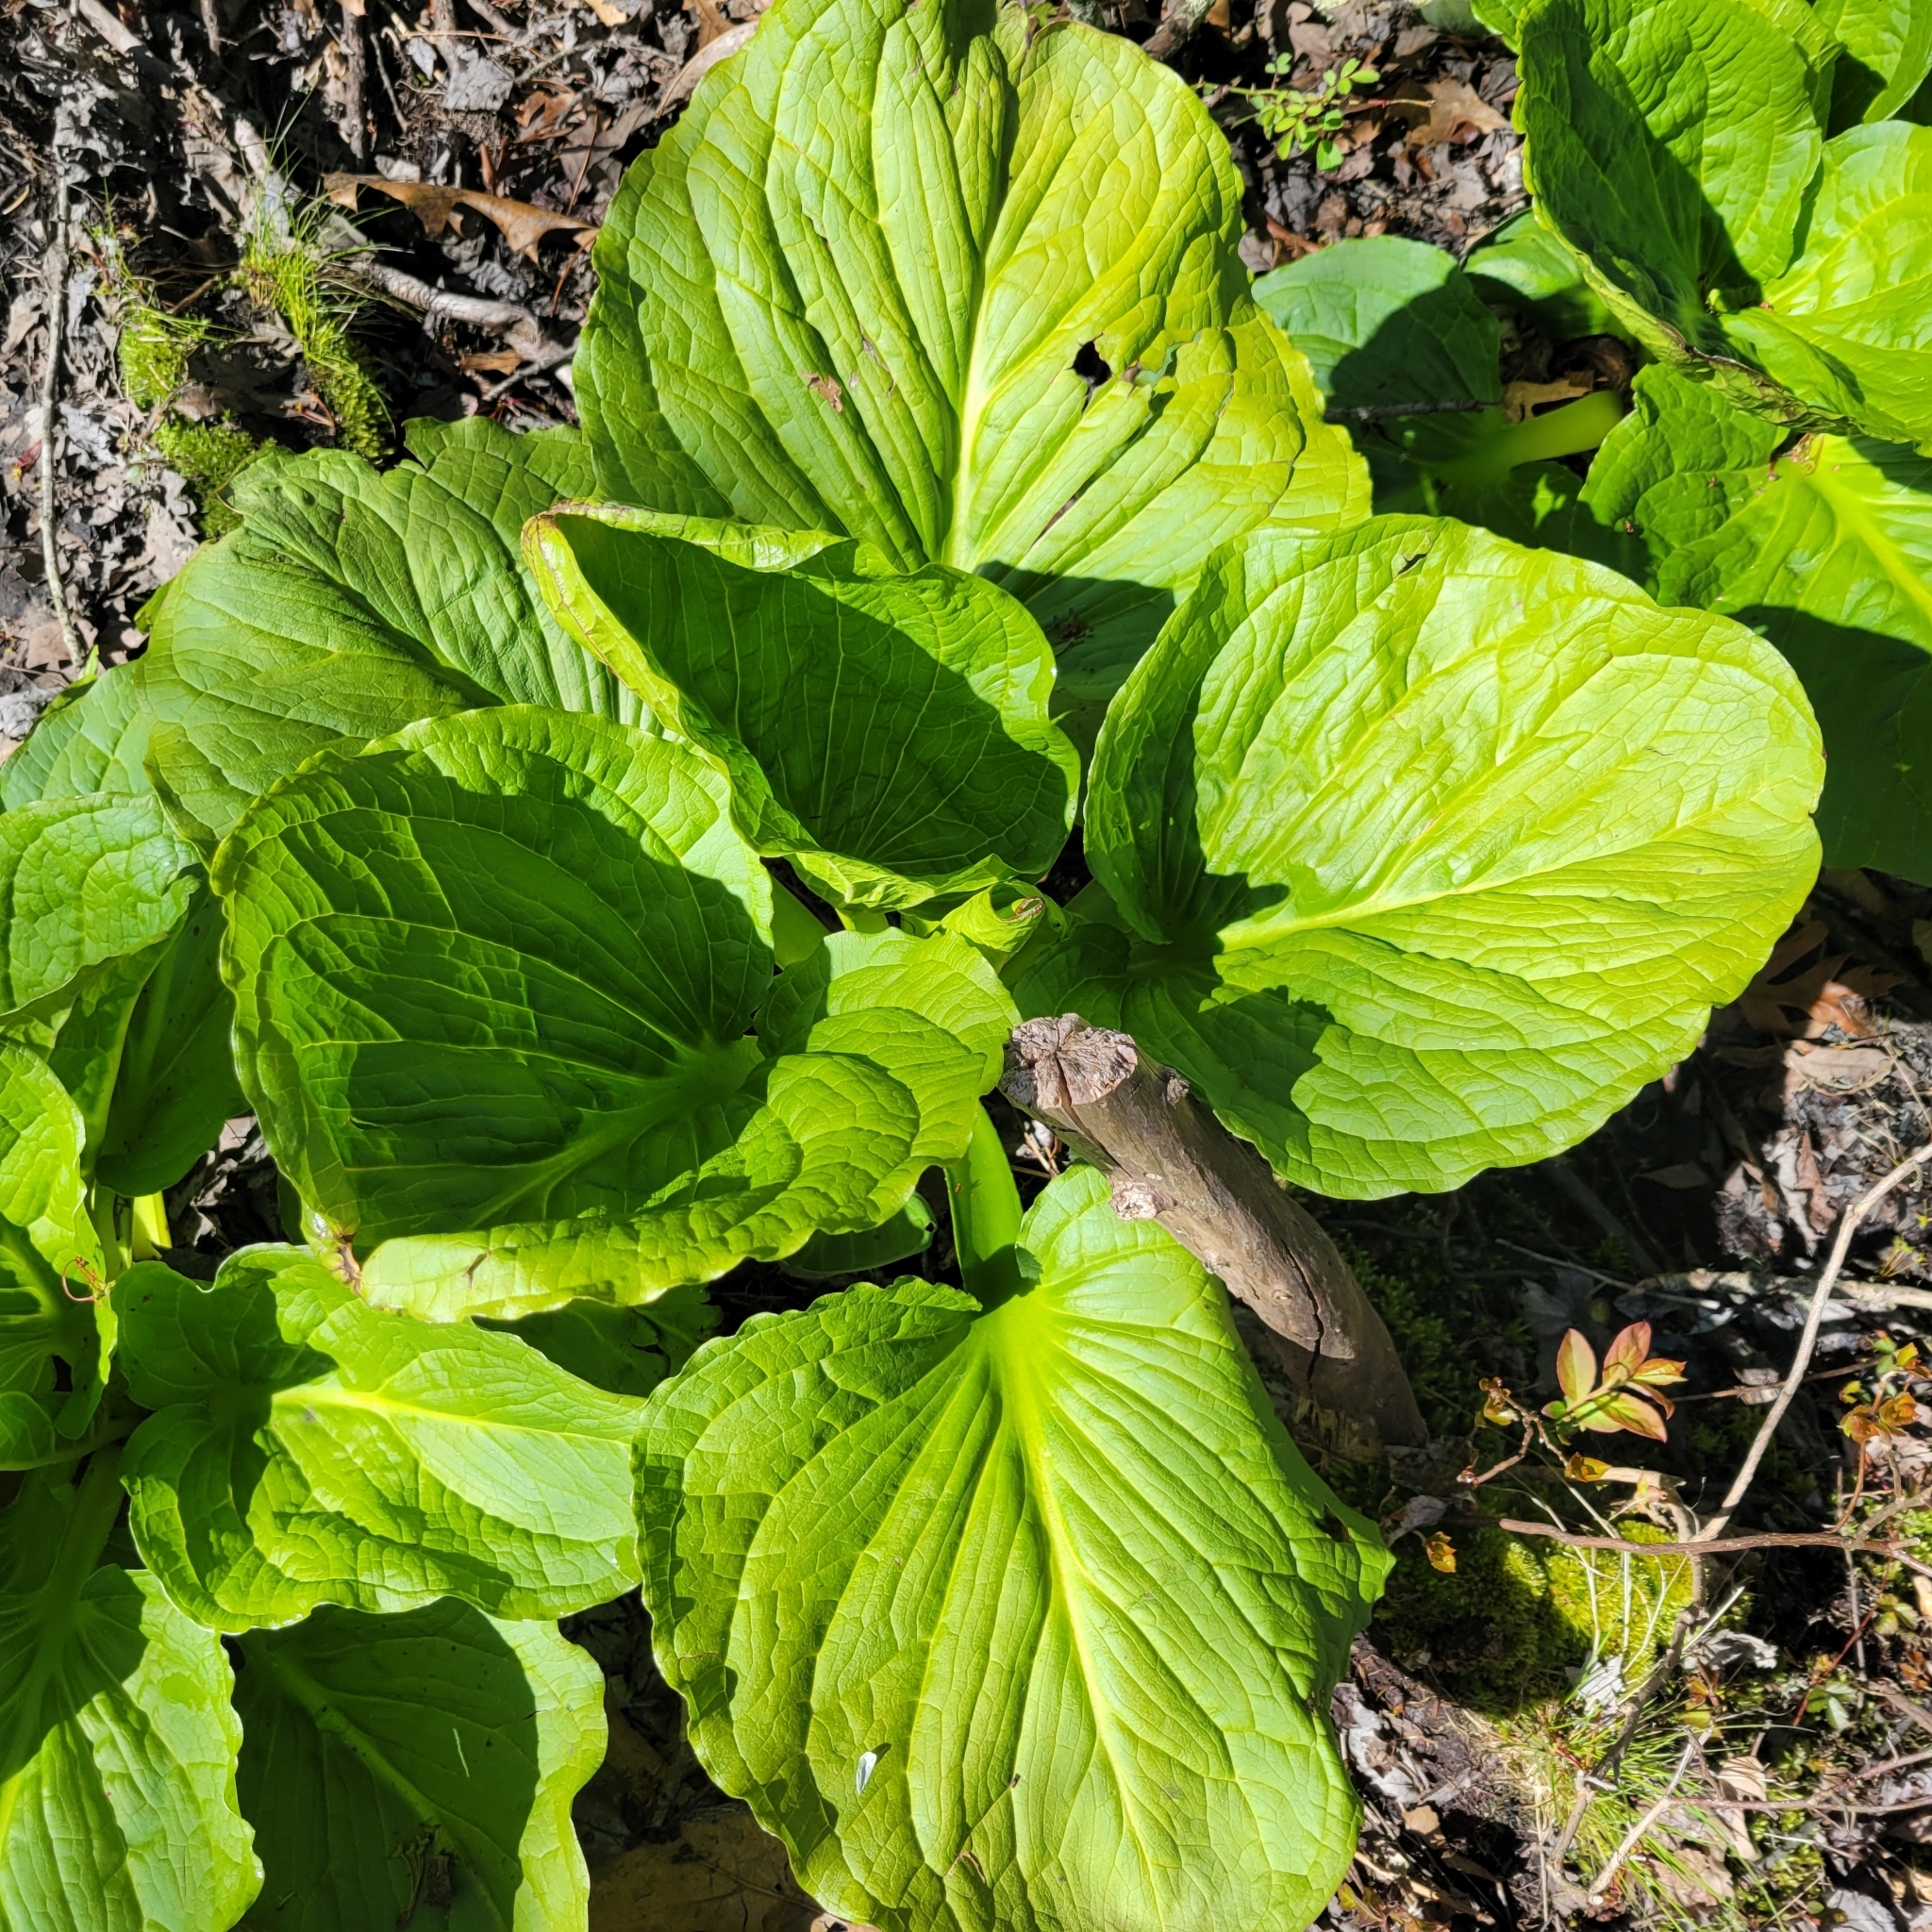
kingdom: Plantae
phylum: Tracheophyta
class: Liliopsida
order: Alismatales
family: Araceae
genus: Symplocarpus
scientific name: Symplocarpus foetidus
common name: Eastern skunk cabbage
